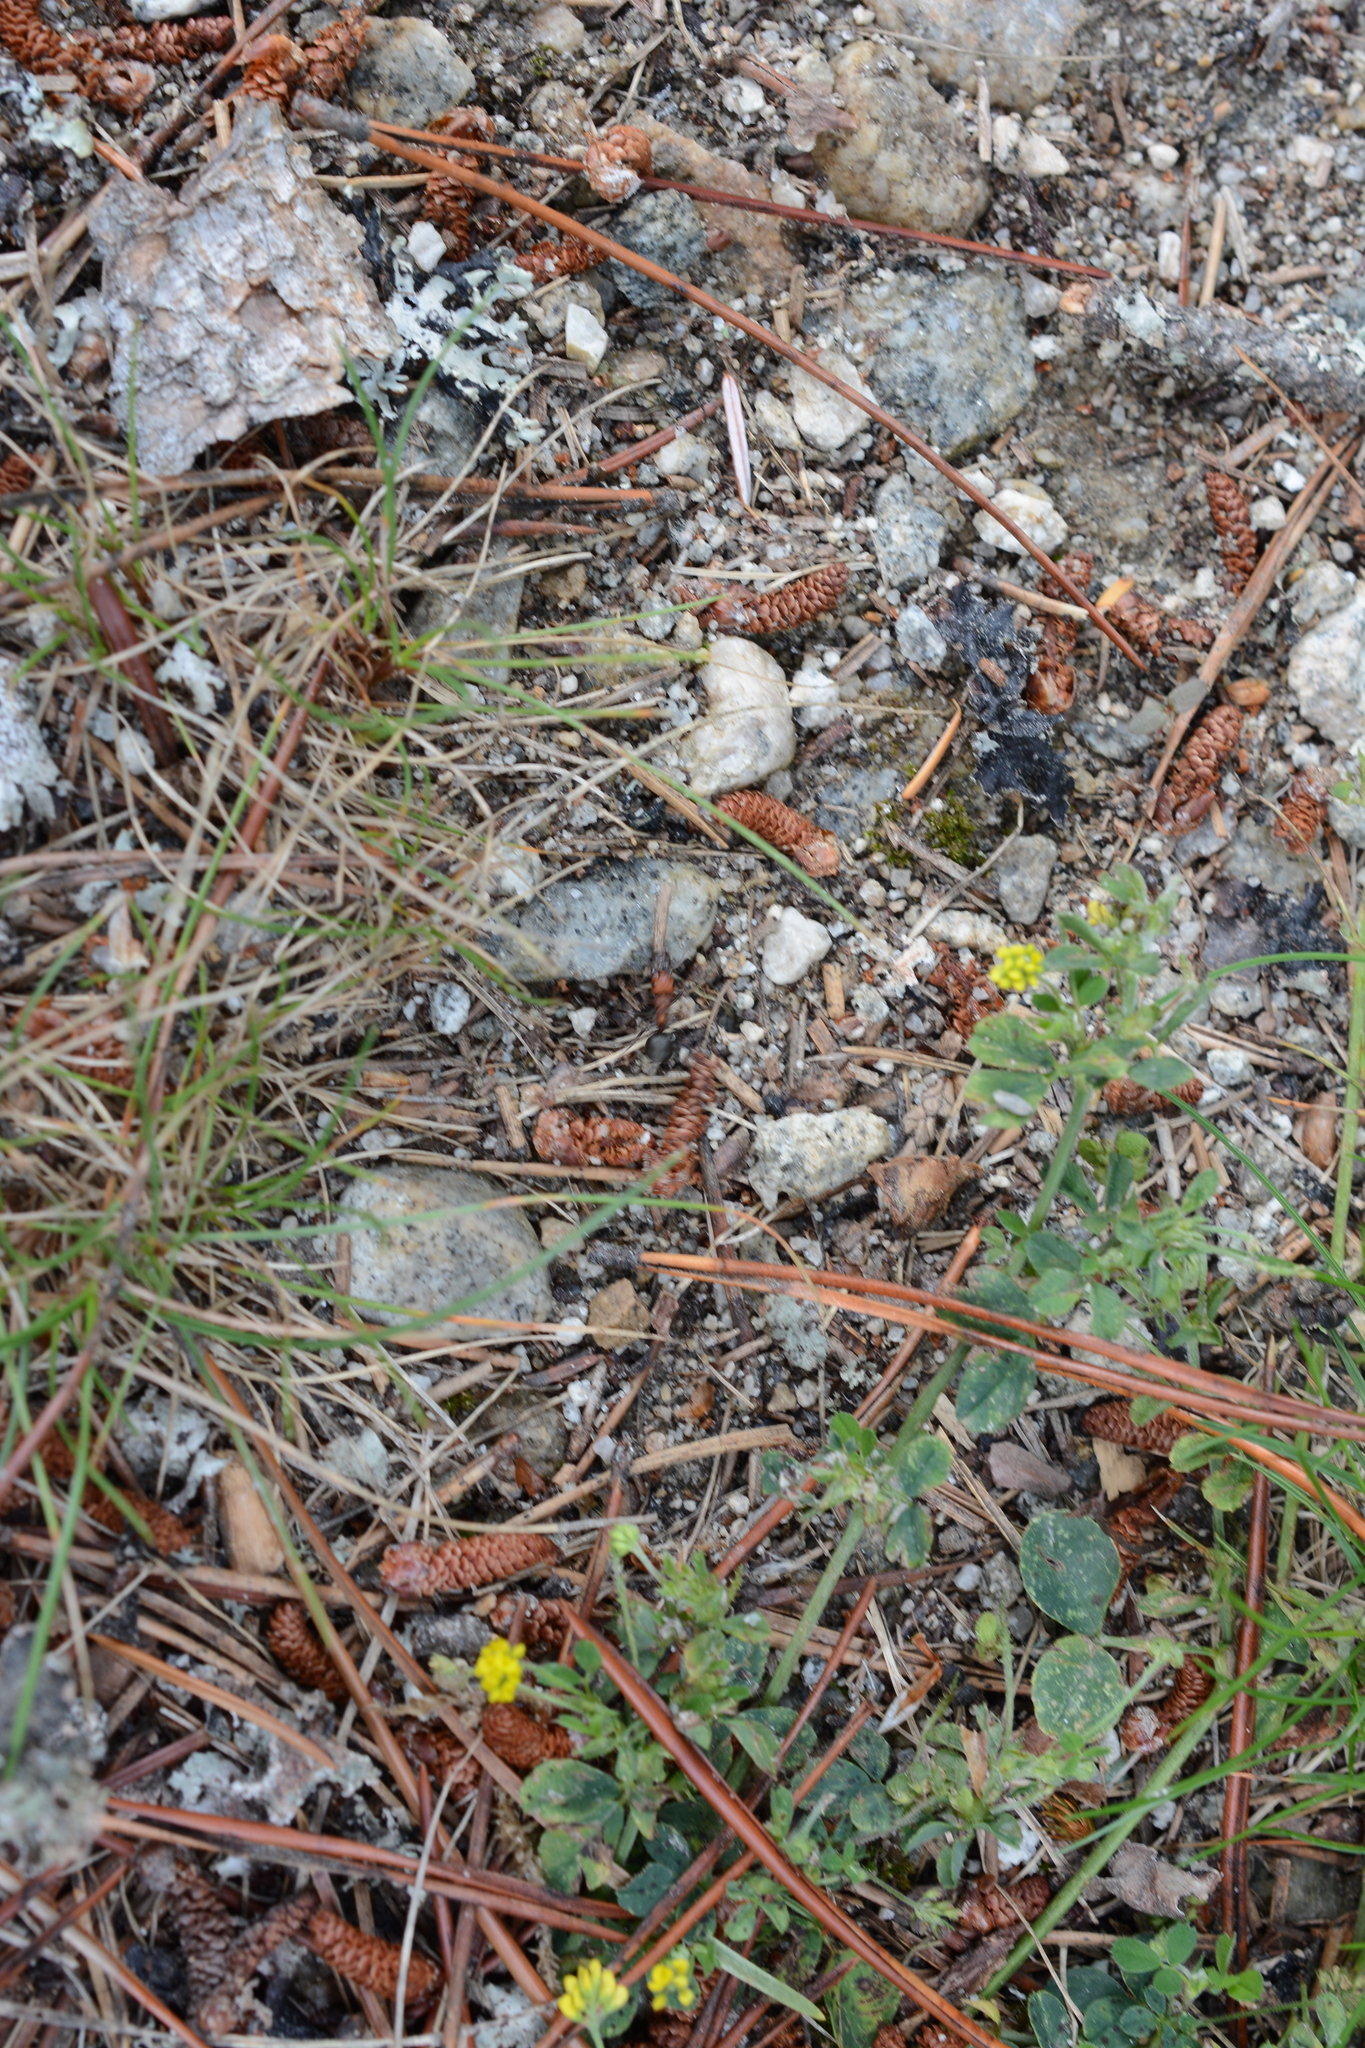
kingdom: Plantae
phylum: Tracheophyta
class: Magnoliopsida
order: Fabales
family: Fabaceae
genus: Medicago
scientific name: Medicago lupulina
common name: Black medick
